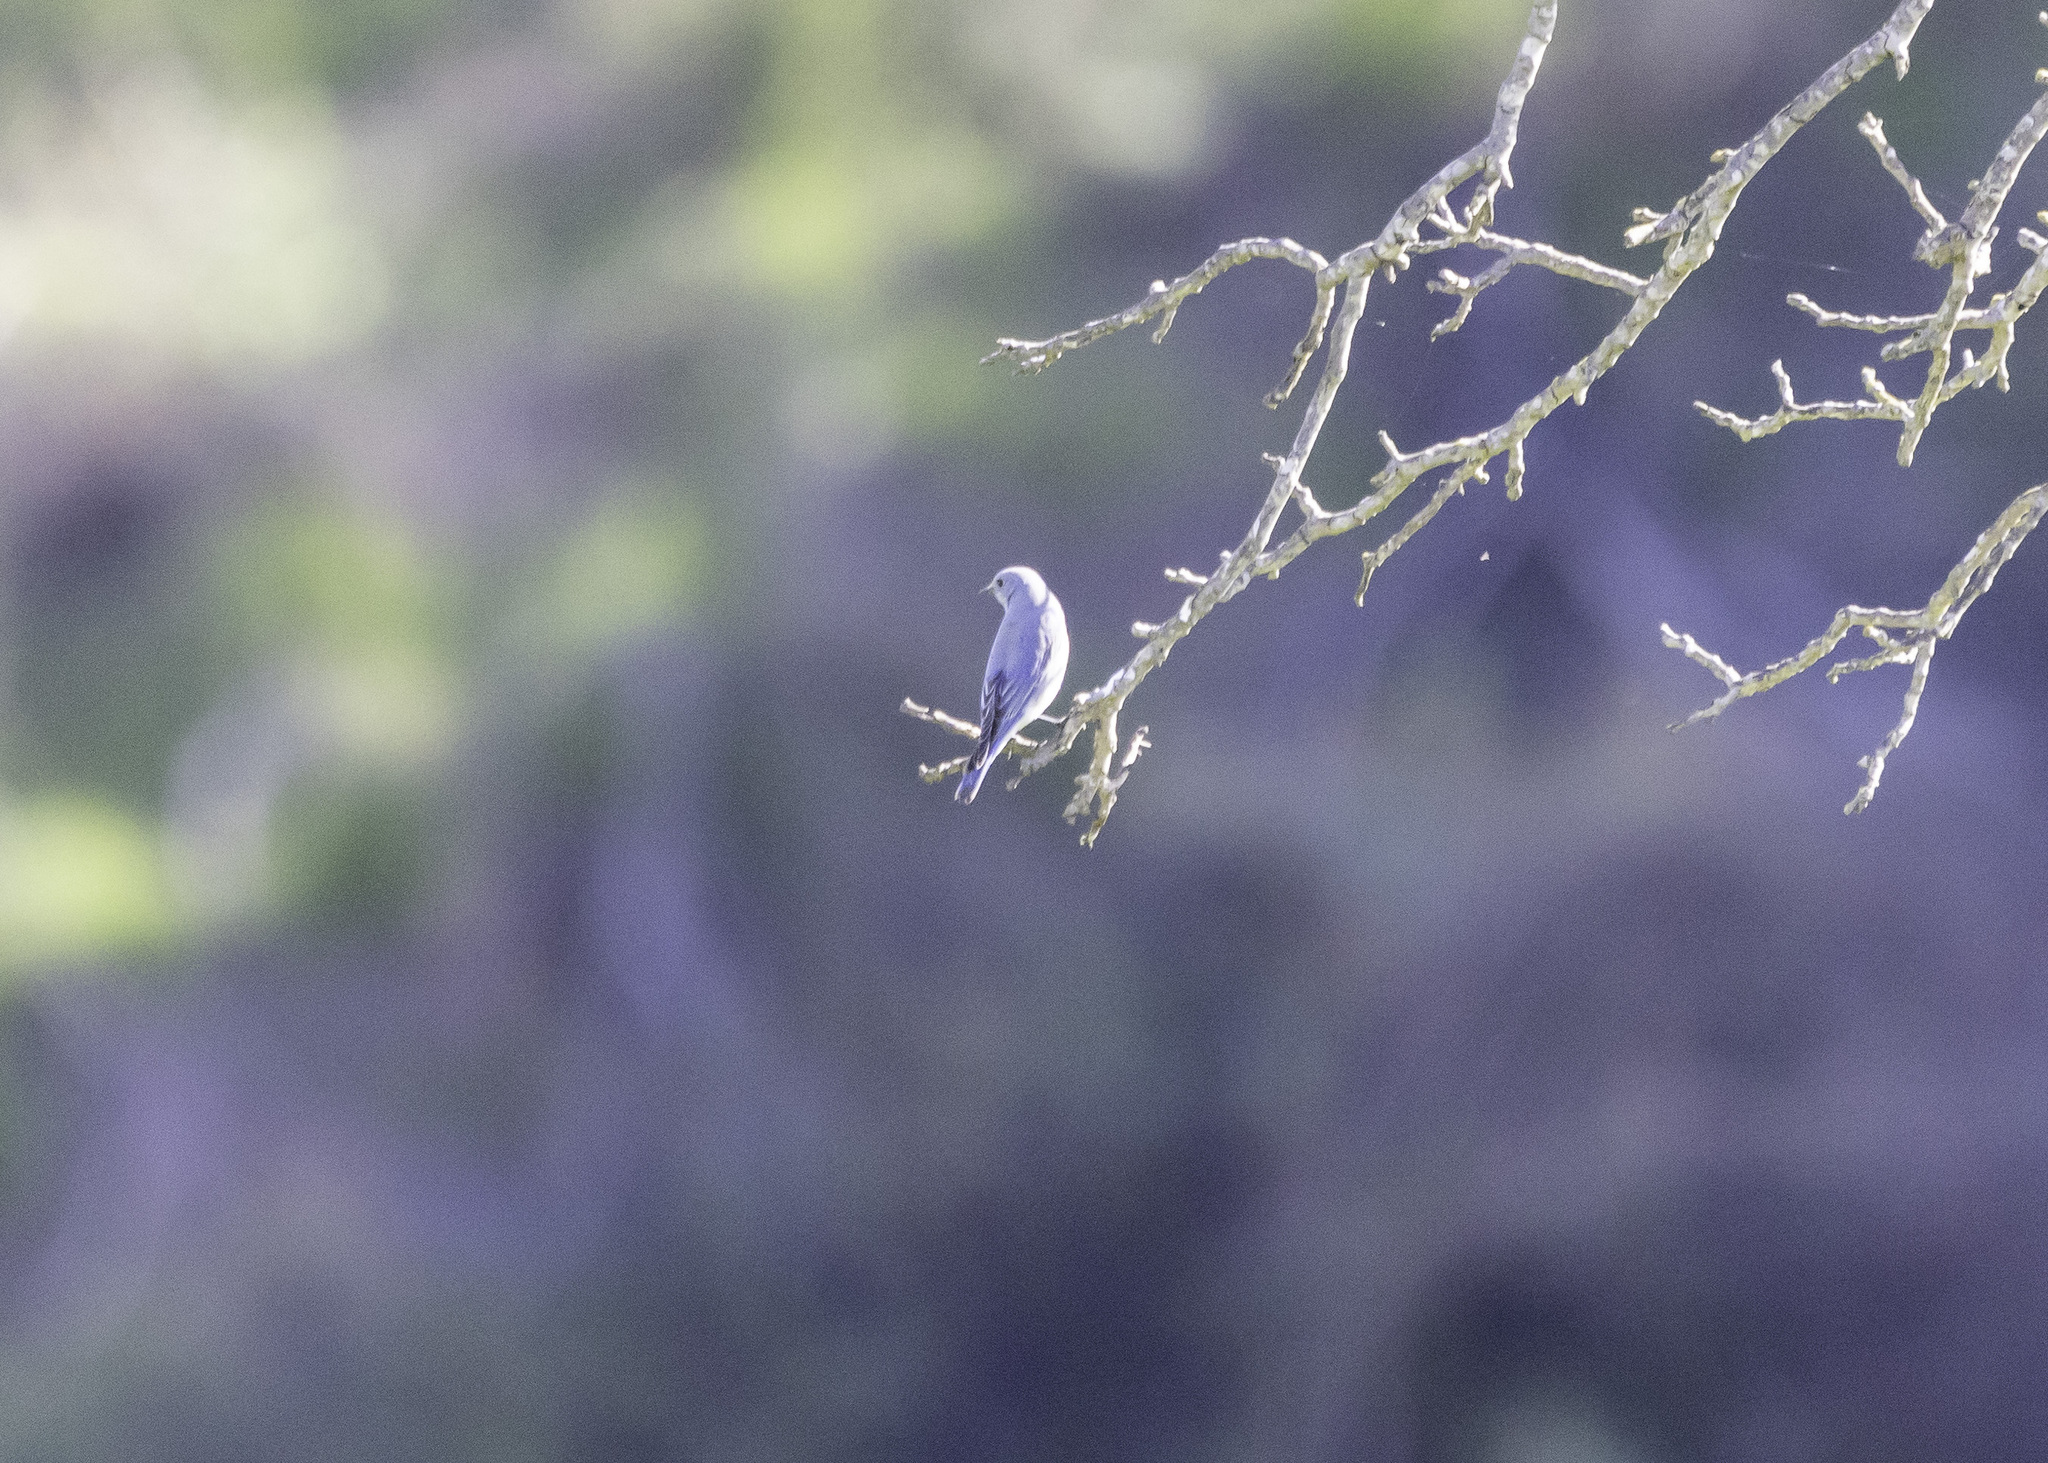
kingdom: Animalia
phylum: Chordata
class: Aves
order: Passeriformes
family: Turdidae
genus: Sialia
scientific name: Sialia currucoides
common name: Mountain bluebird
